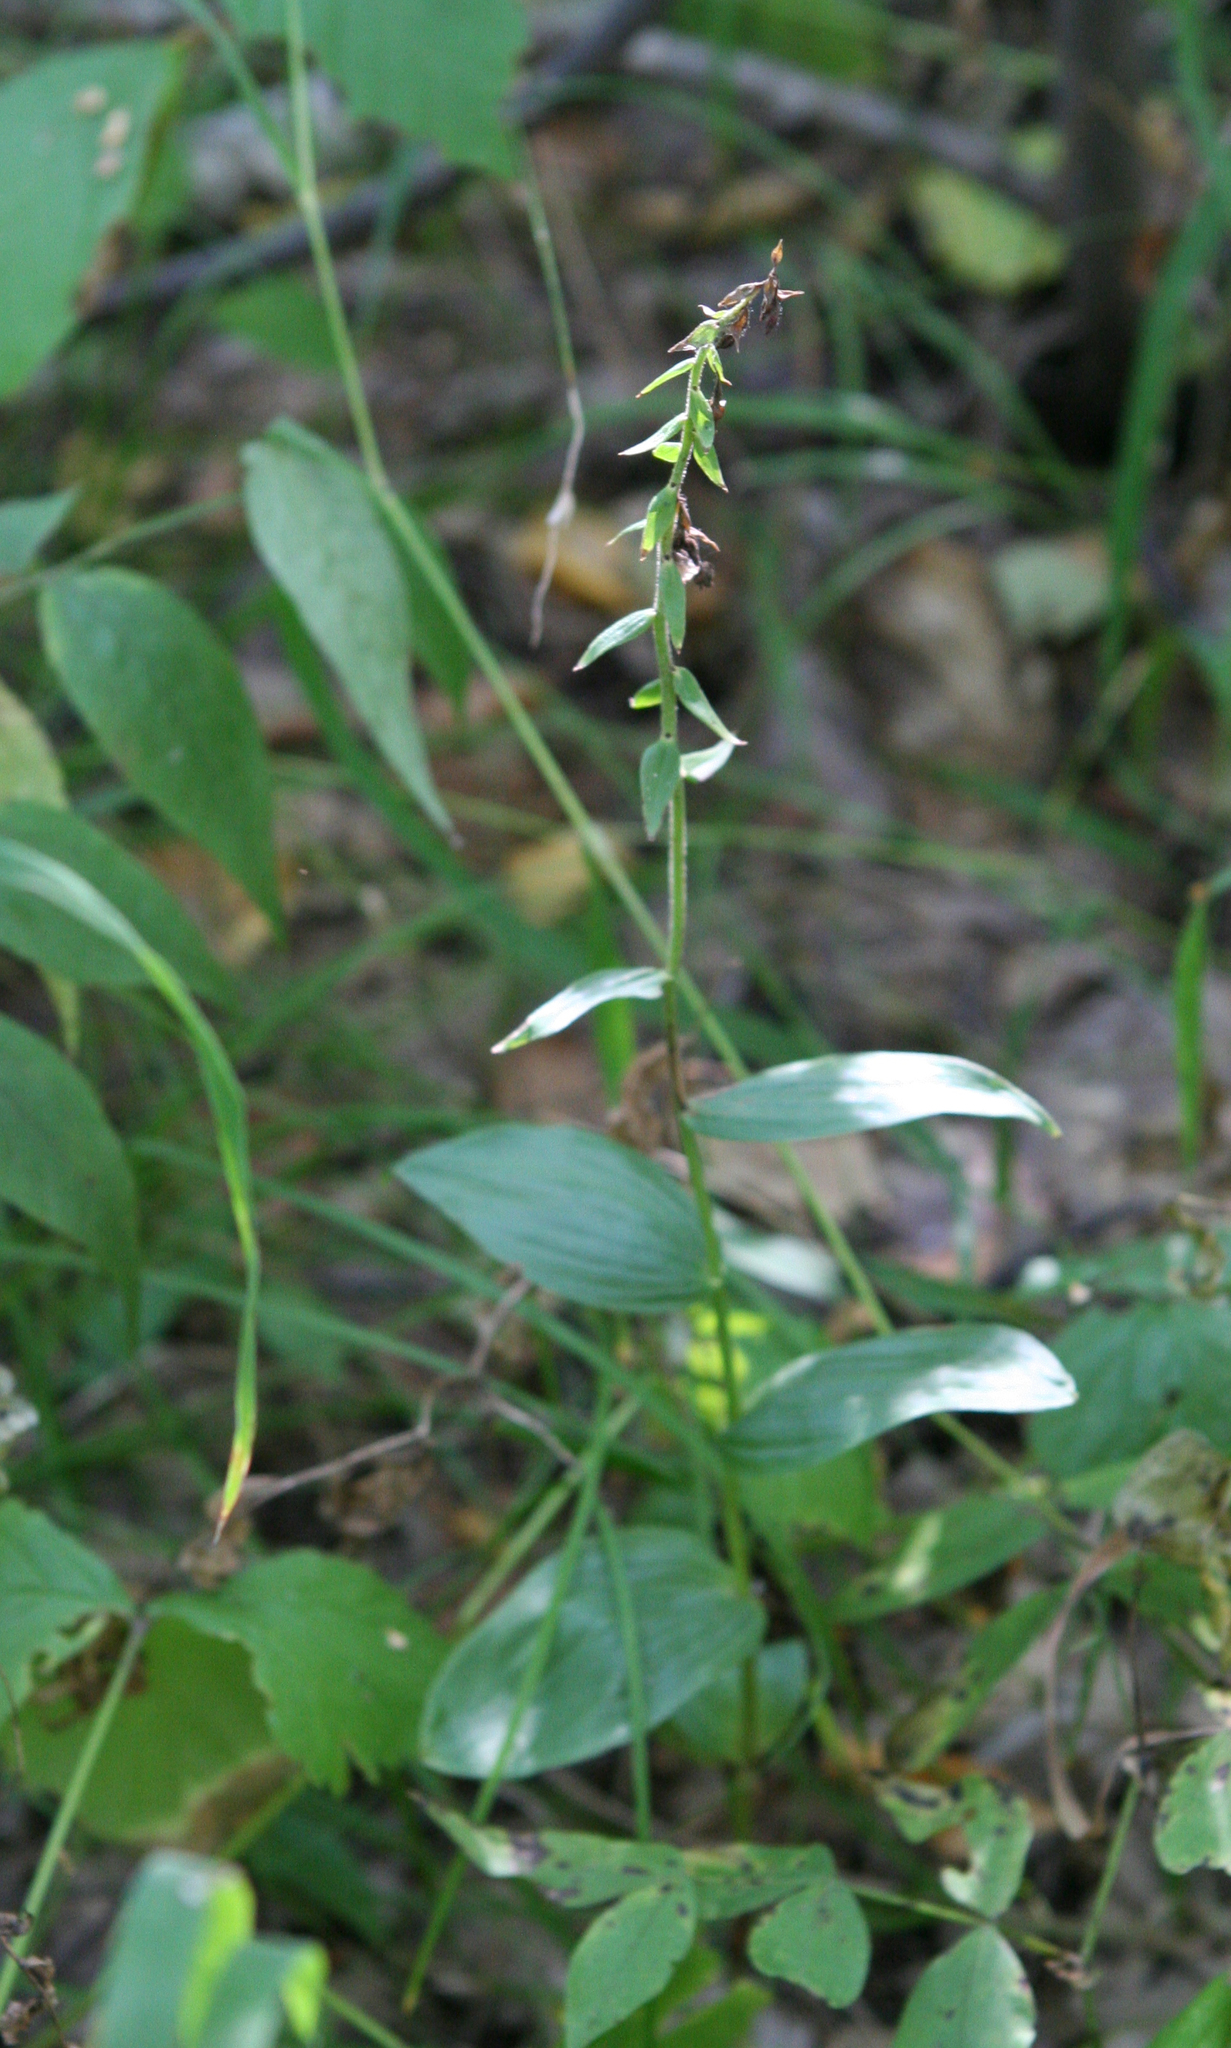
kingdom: Plantae
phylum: Tracheophyta
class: Liliopsida
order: Asparagales
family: Orchidaceae
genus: Epipactis
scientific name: Epipactis helleborine
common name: Broad-leaved helleborine
